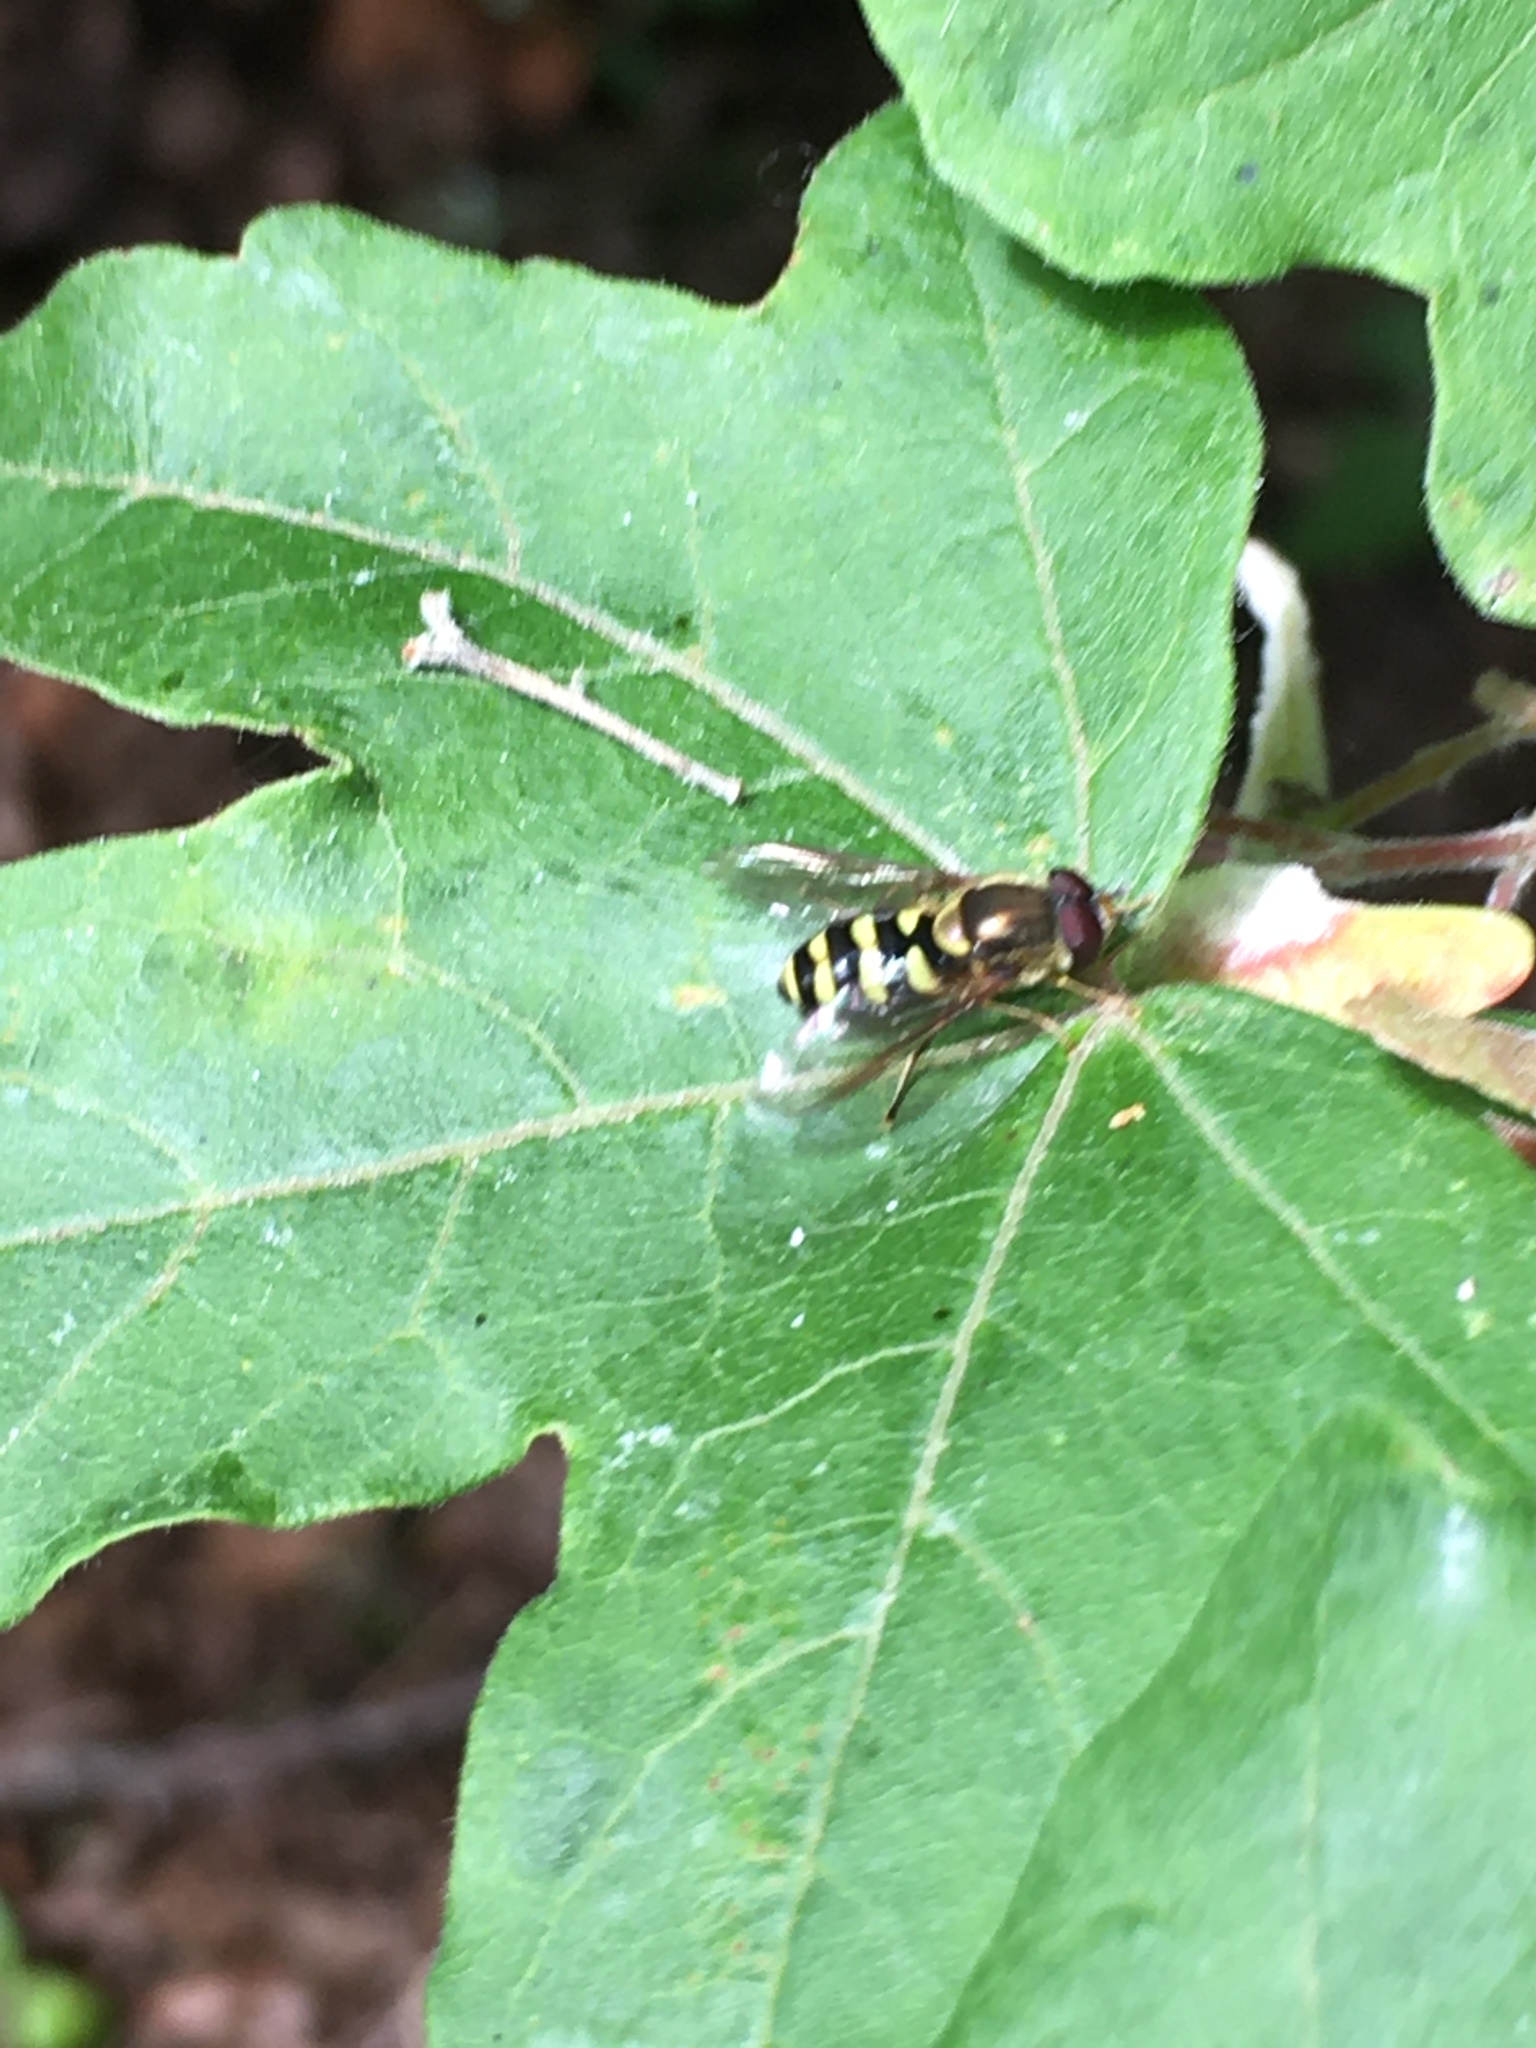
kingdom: Animalia
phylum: Arthropoda
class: Insecta
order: Diptera
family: Syrphidae
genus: Syrphus
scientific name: Syrphus opinator
